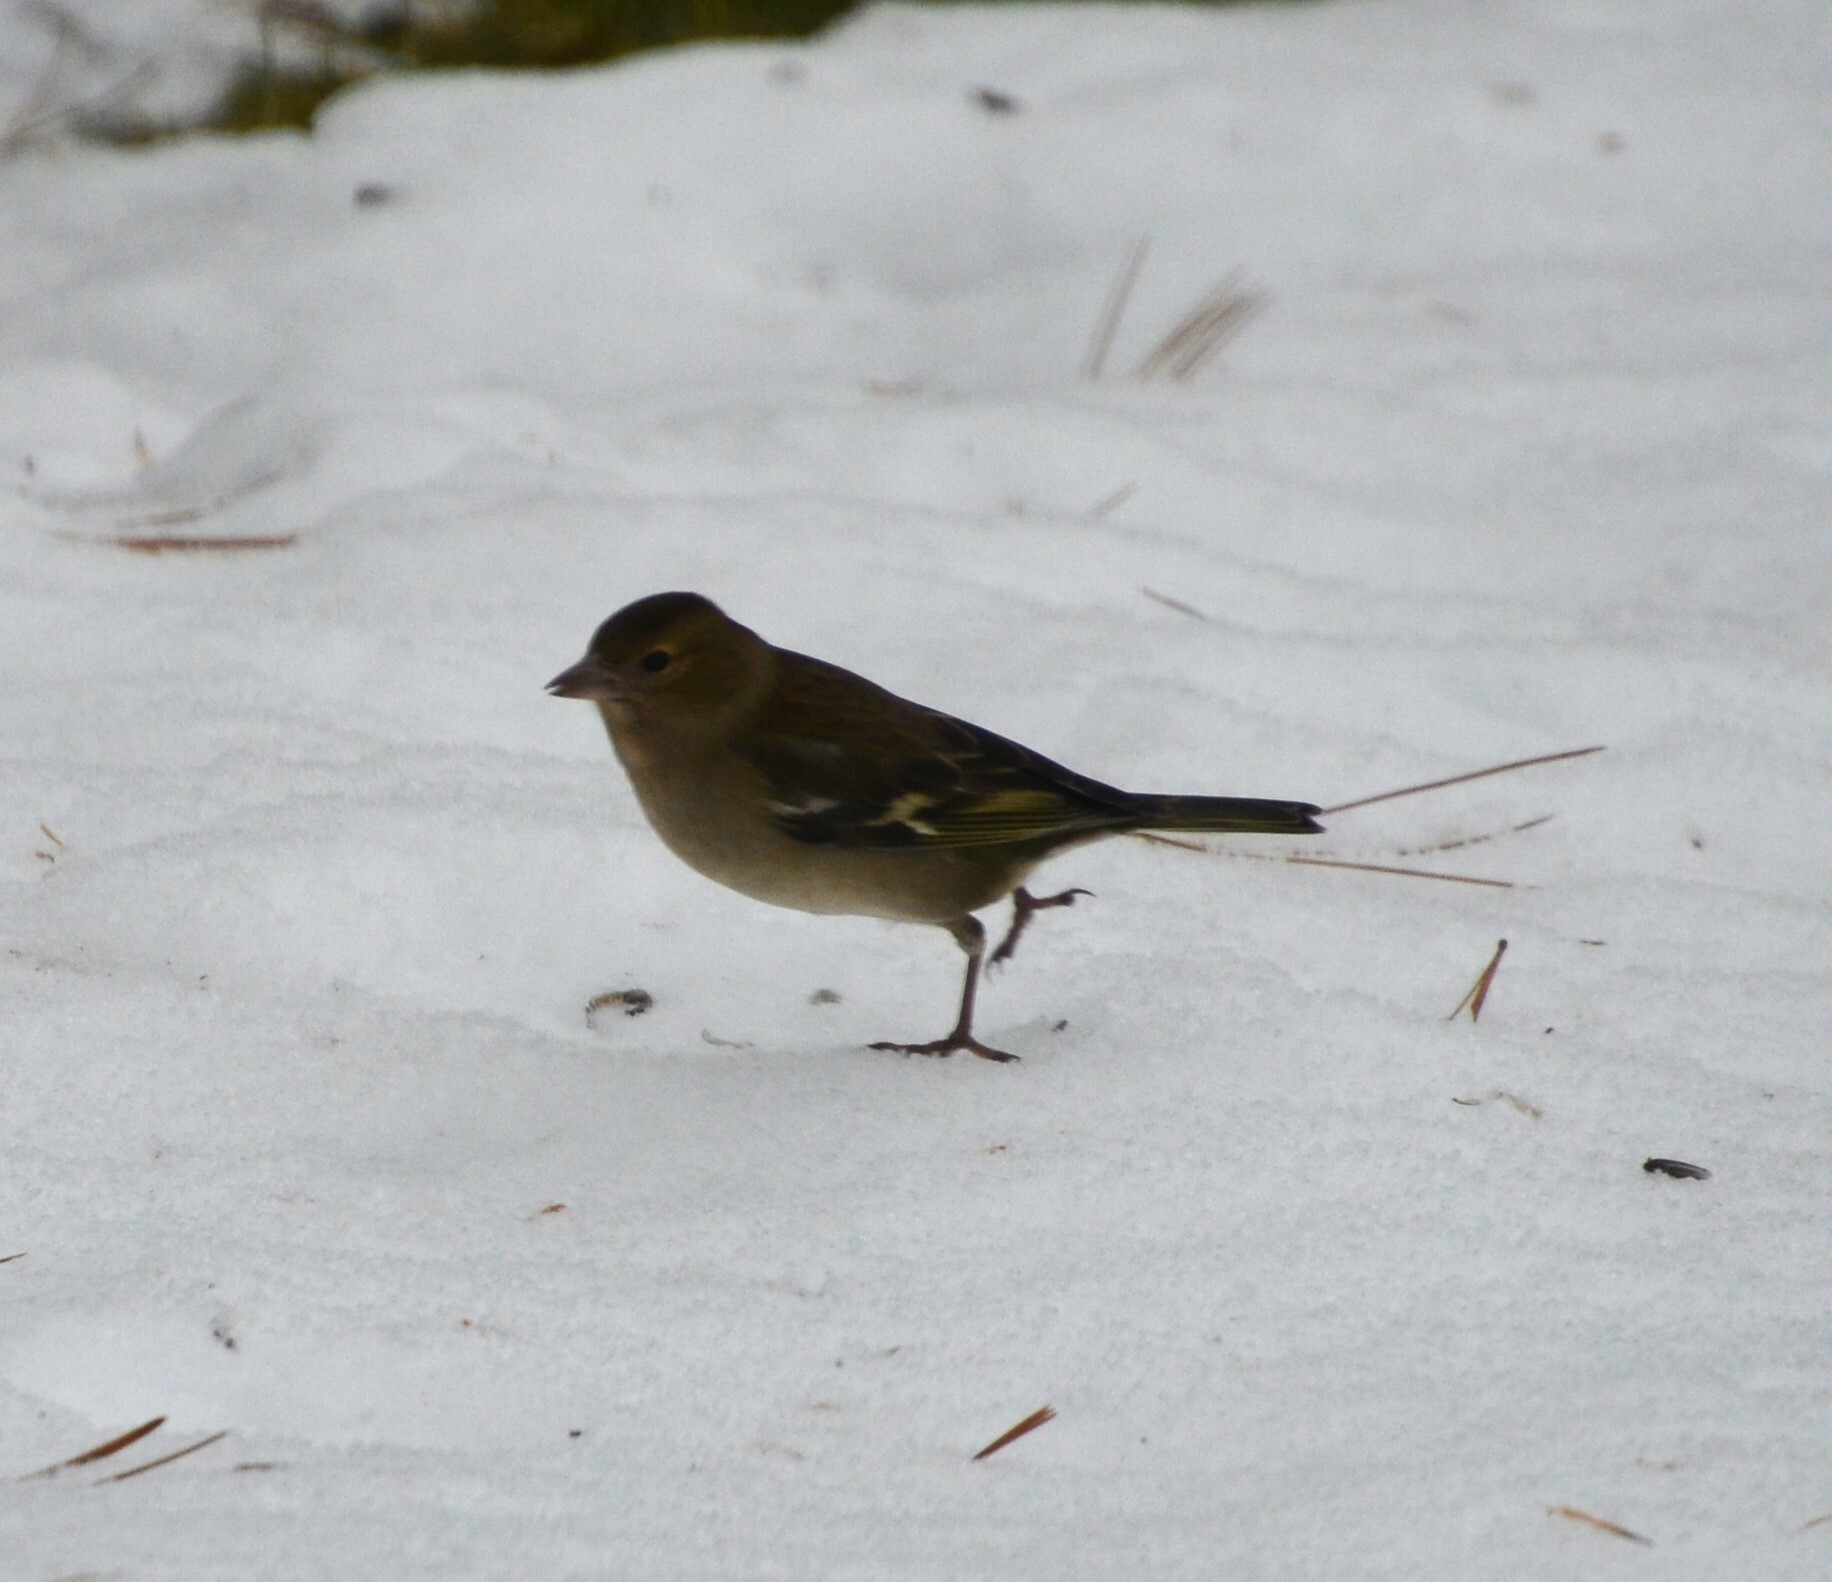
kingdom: Animalia
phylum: Chordata
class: Aves
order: Passeriformes
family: Fringillidae
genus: Fringilla
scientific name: Fringilla coelebs
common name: Common chaffinch
